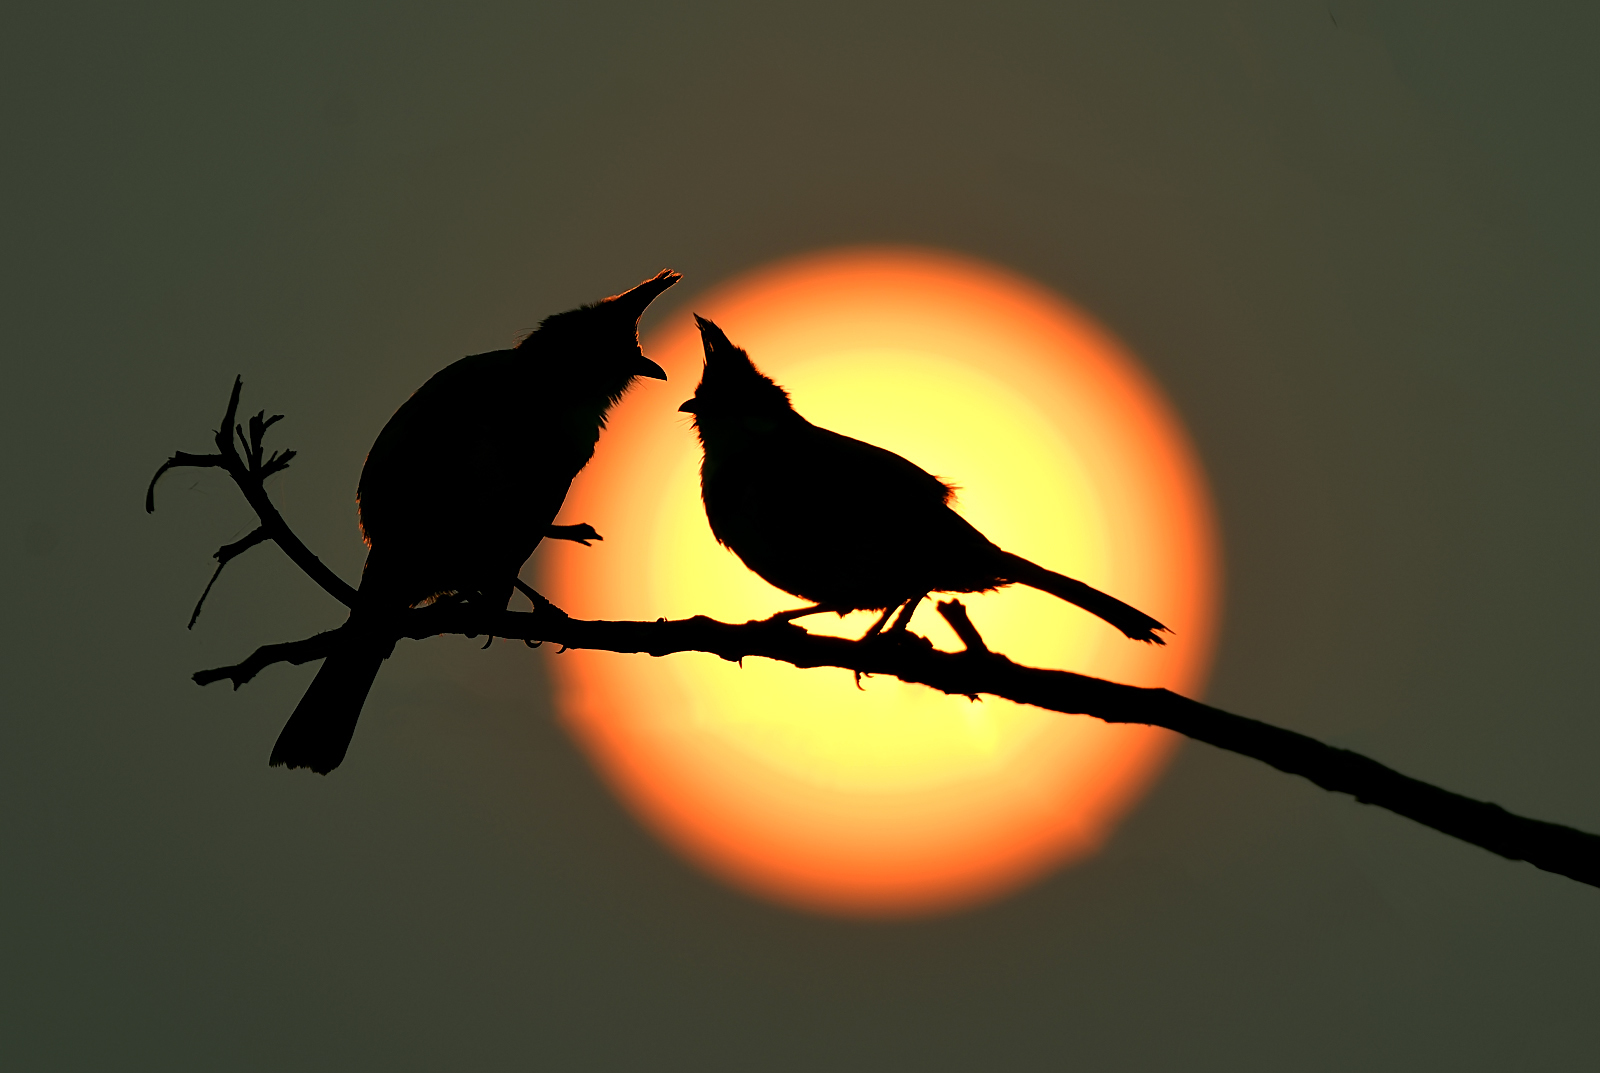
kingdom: Animalia
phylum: Chordata
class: Aves
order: Passeriformes
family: Pycnonotidae
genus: Pycnonotus
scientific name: Pycnonotus jocosus
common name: Red-whiskered bulbul
